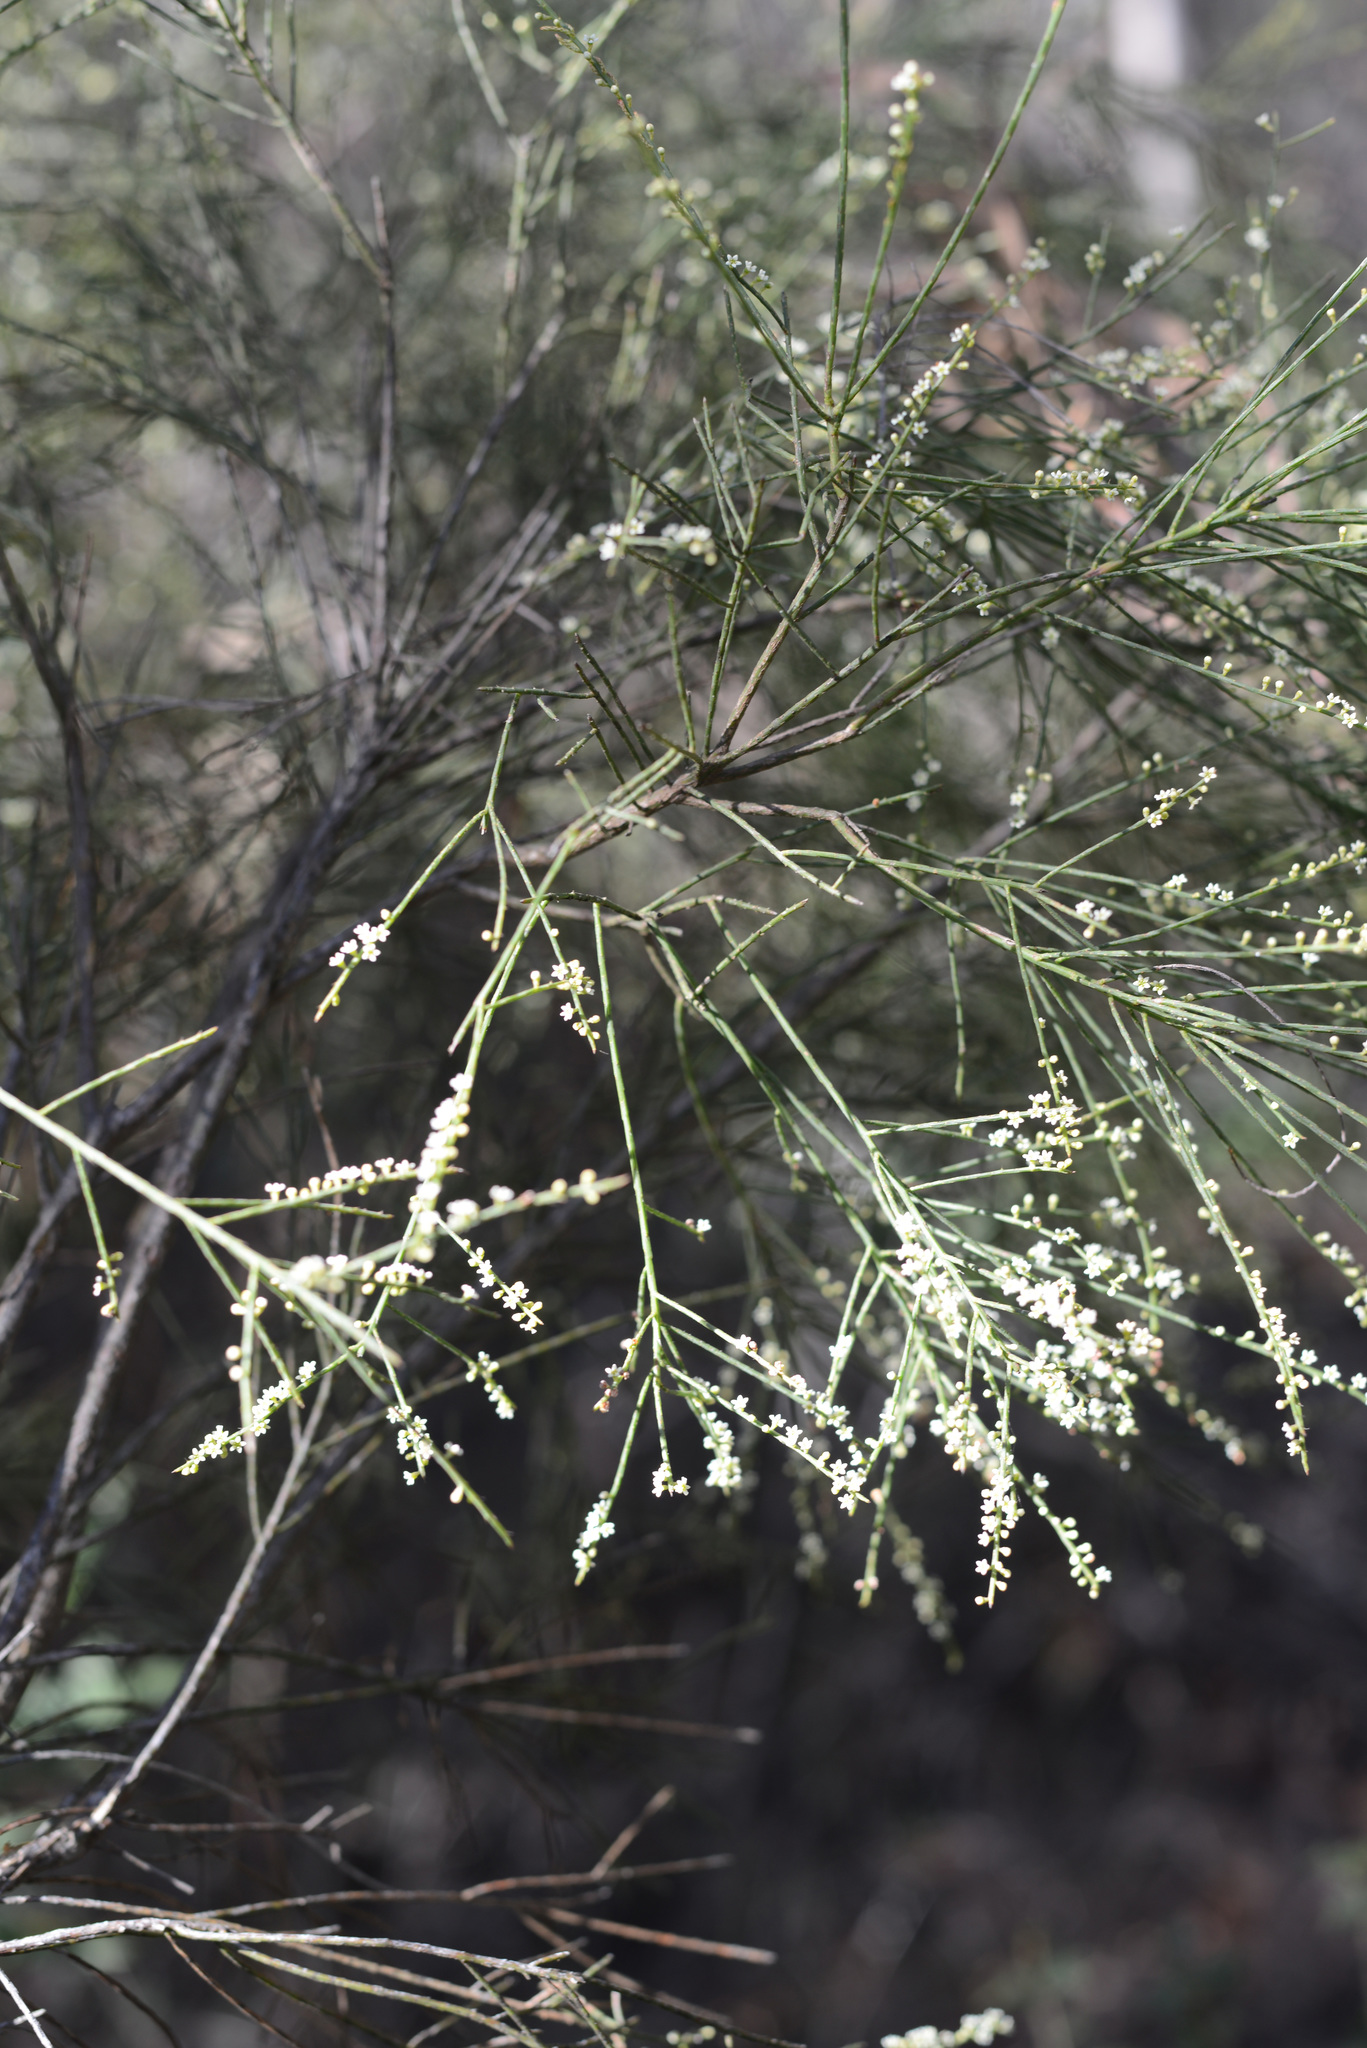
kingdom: Plantae
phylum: Tracheophyta
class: Magnoliopsida
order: Santalales
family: Amphorogynaceae
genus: Choretrum
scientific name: Choretrum candollei
